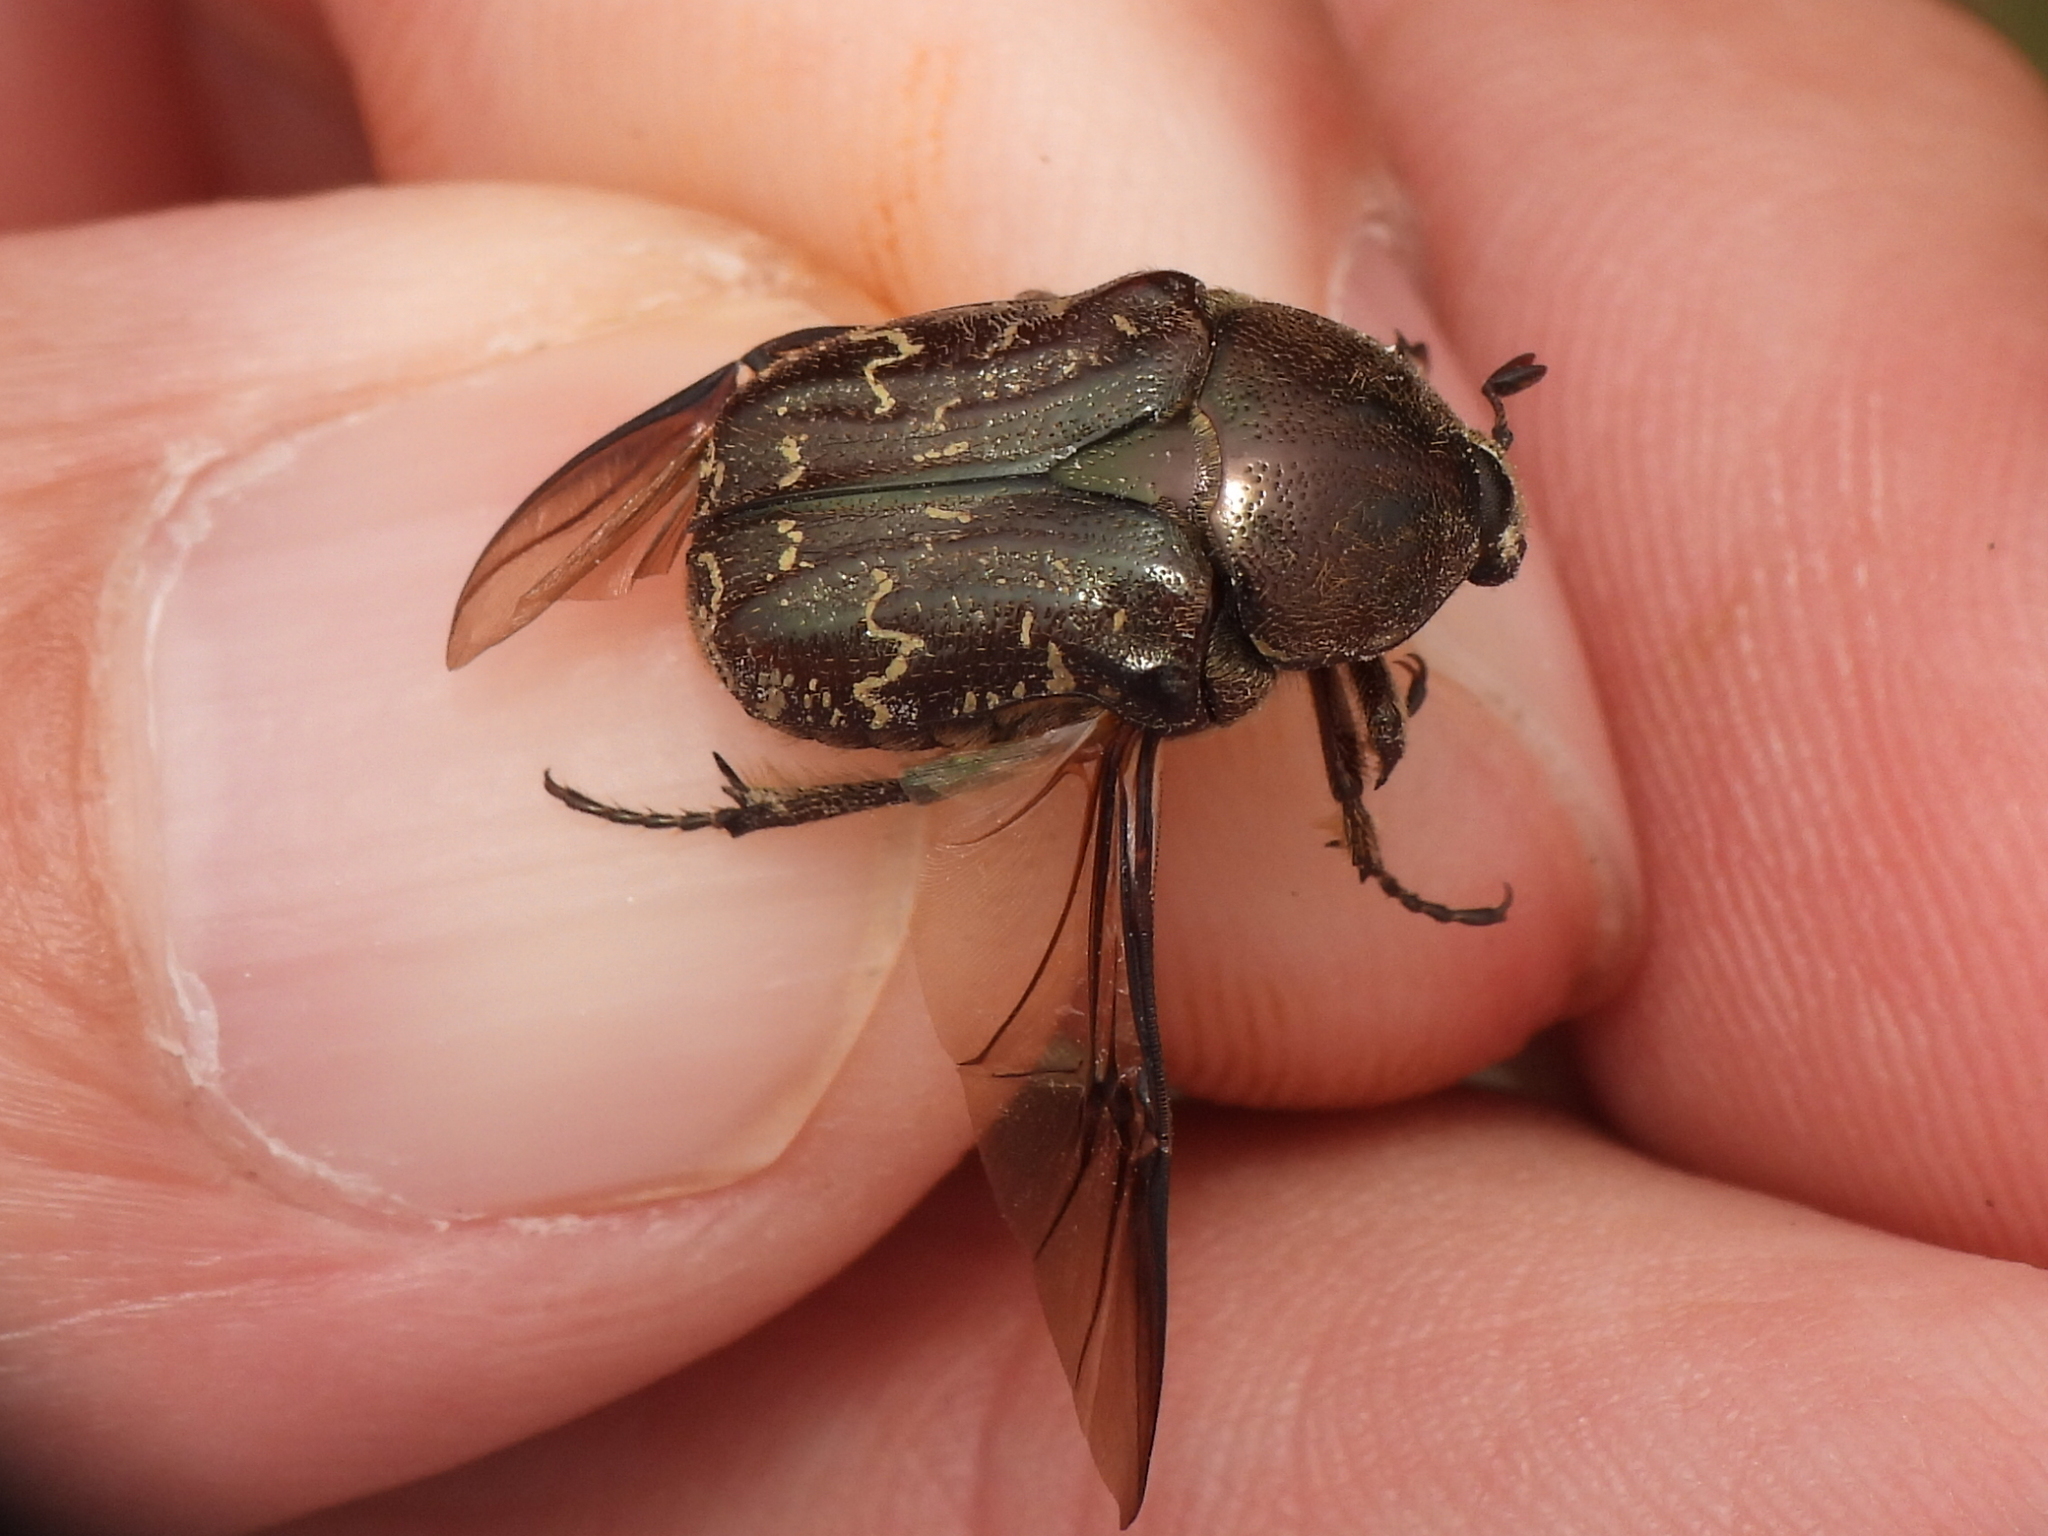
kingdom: Animalia
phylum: Arthropoda
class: Insecta
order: Coleoptera
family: Scarabaeidae
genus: Euphoria
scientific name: Euphoria sepulcralis
